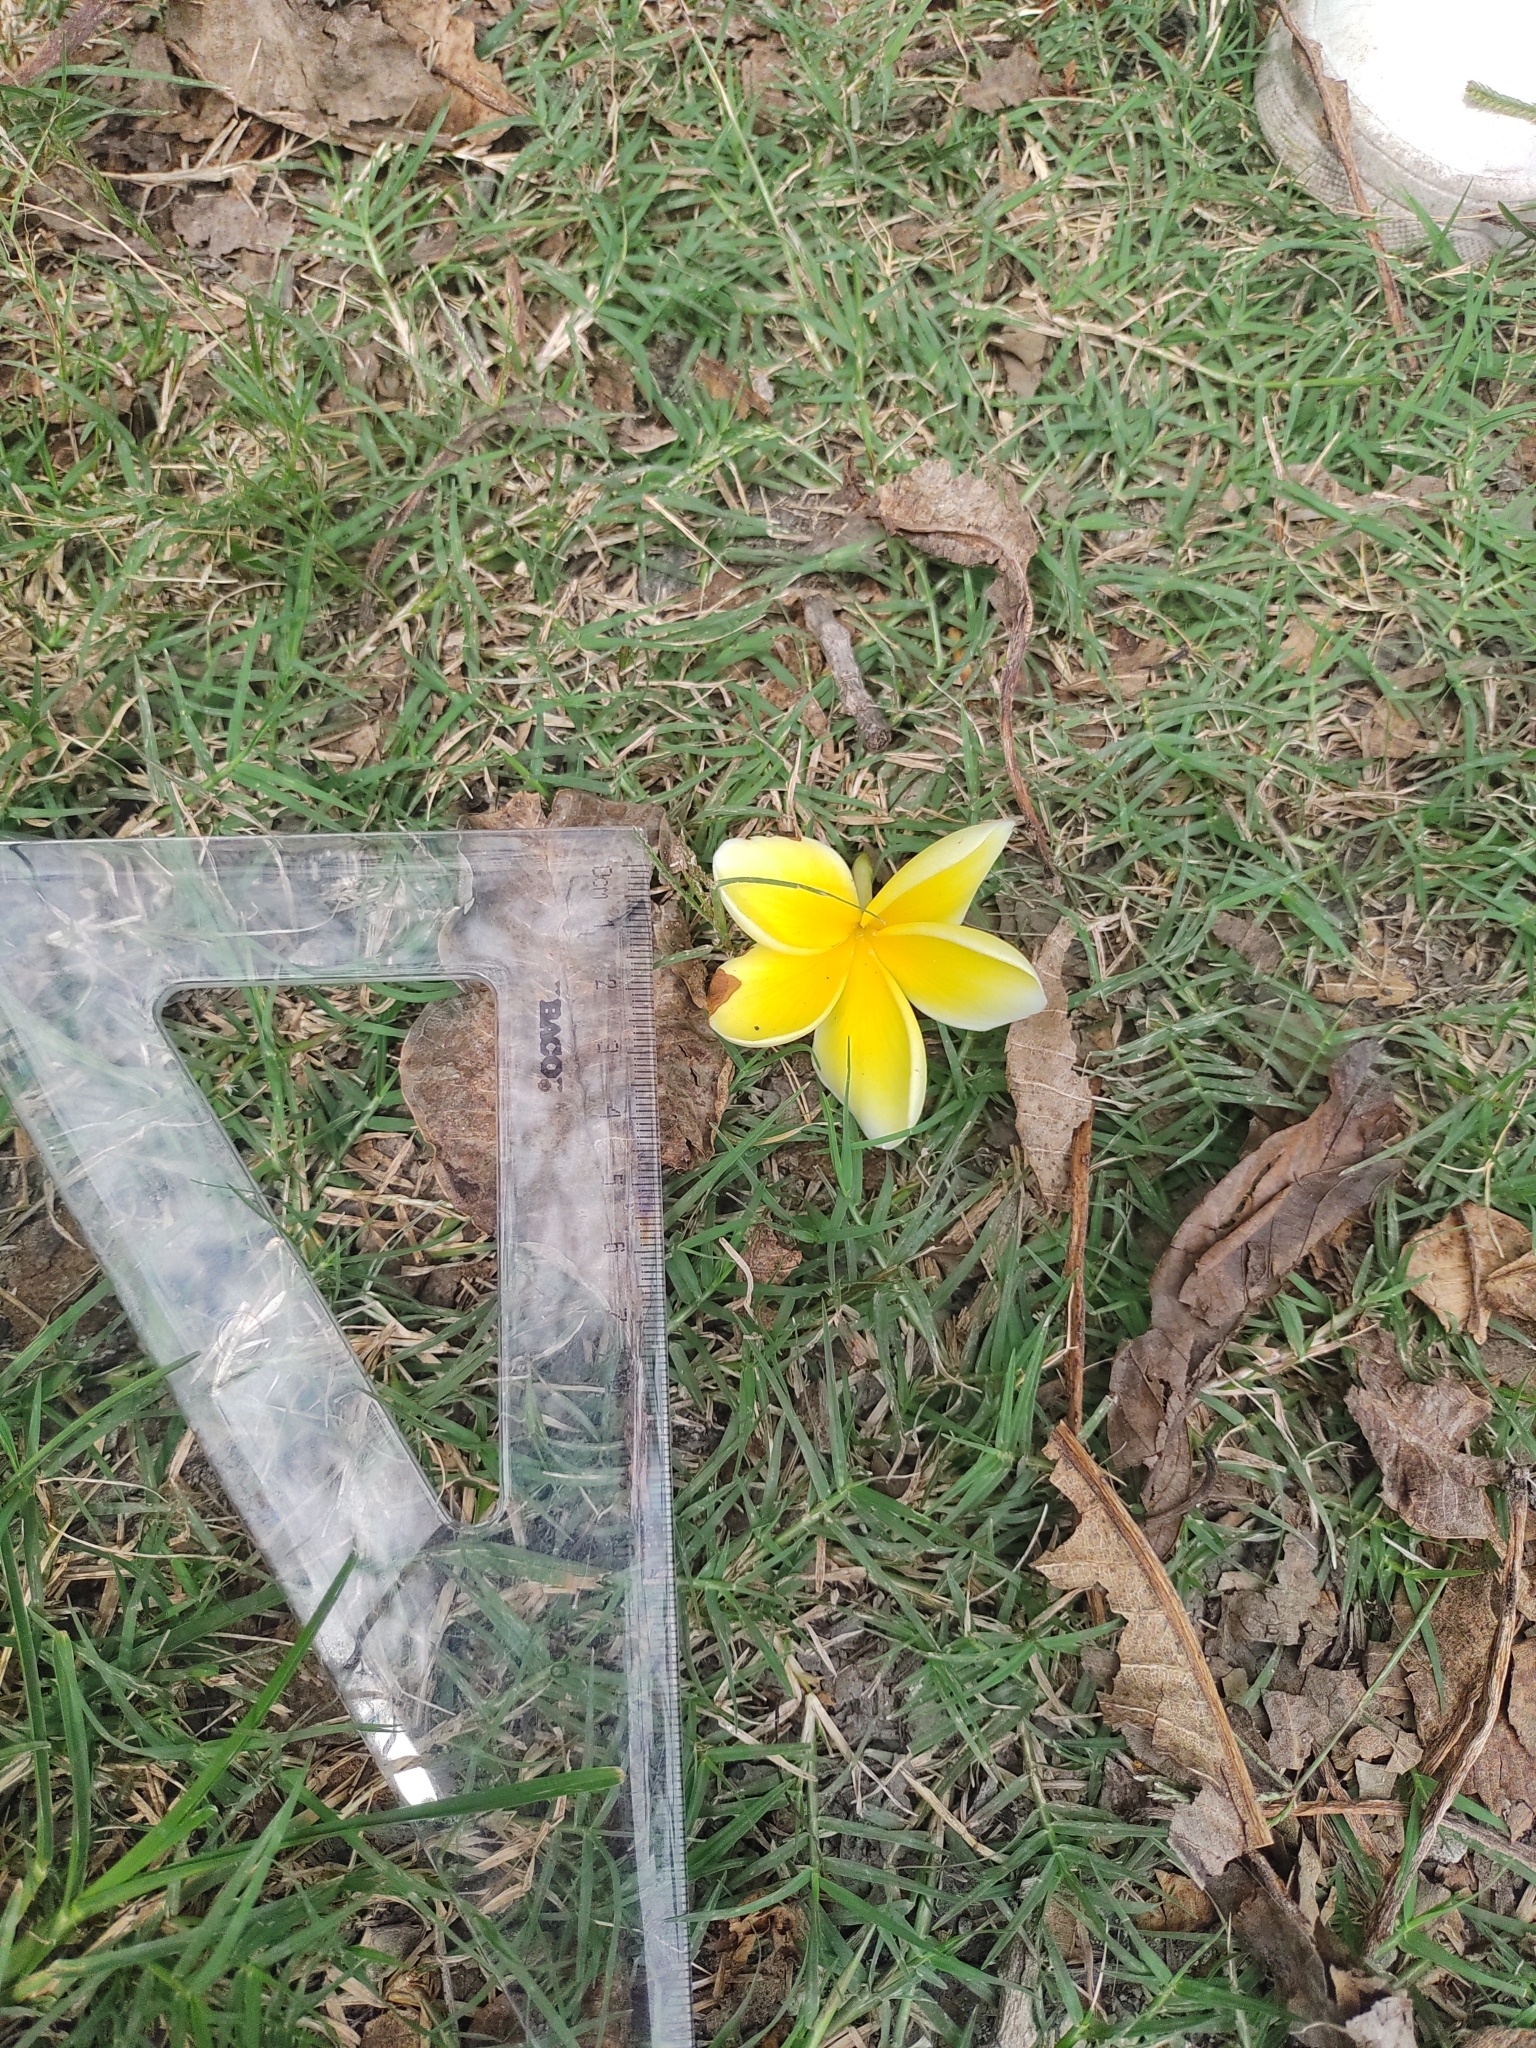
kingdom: Plantae
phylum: Tracheophyta
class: Magnoliopsida
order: Gentianales
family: Apocynaceae
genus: Plumeria
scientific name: Plumeria rubra
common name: Pagoda-tree
